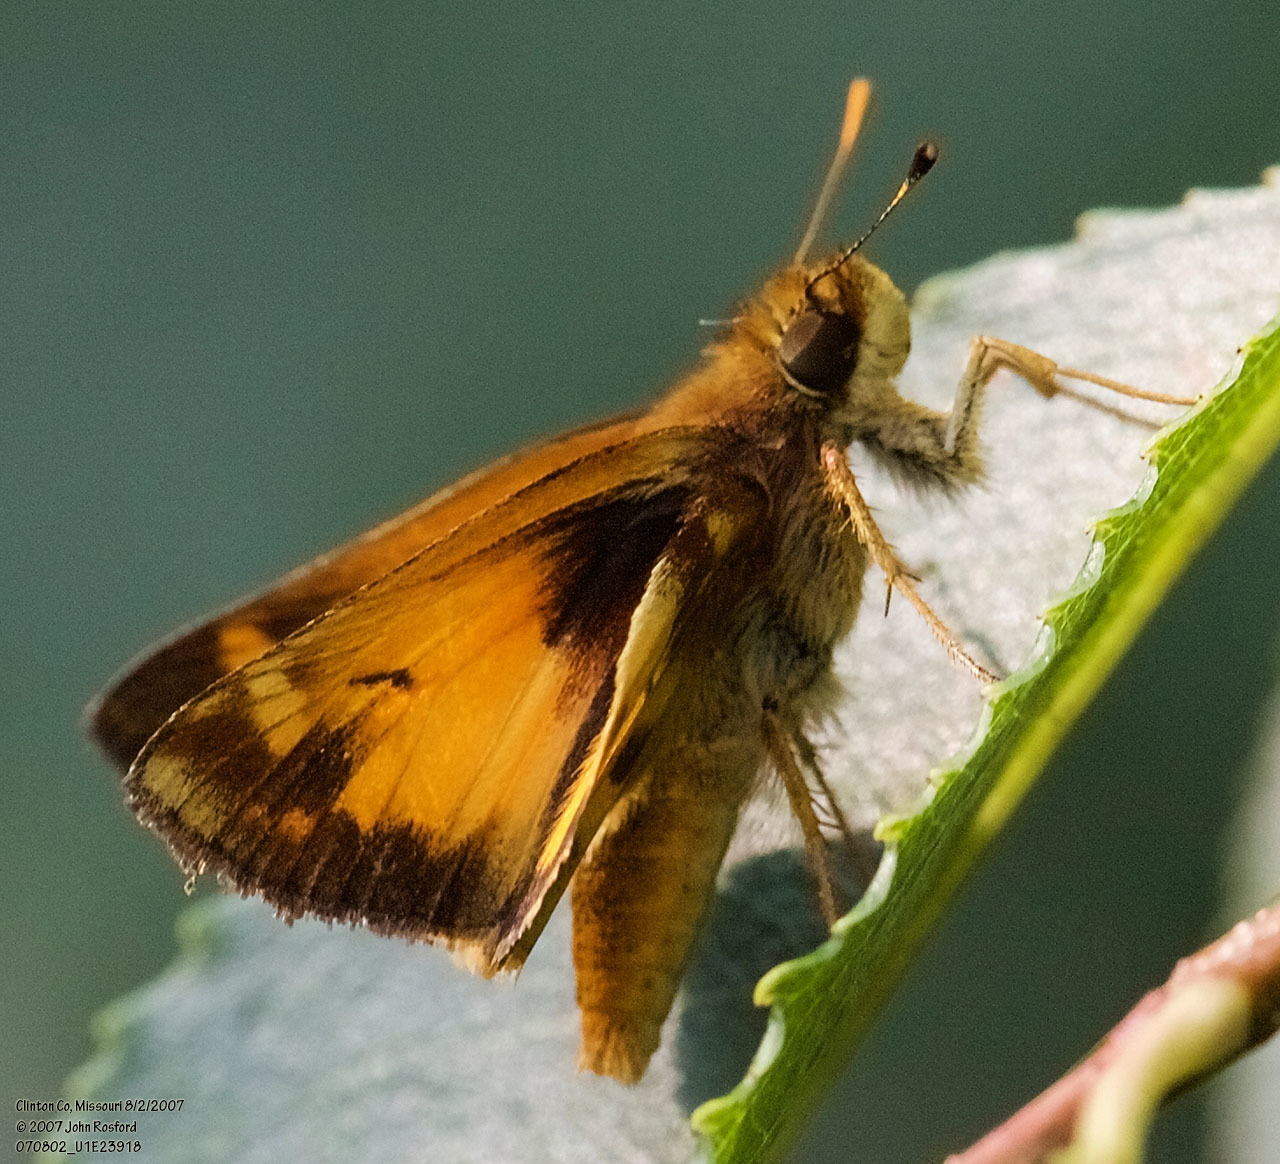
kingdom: Animalia
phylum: Arthropoda
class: Insecta
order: Lepidoptera
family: Hesperiidae
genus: Lon
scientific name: Lon zabulon
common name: Zabulon skipper
